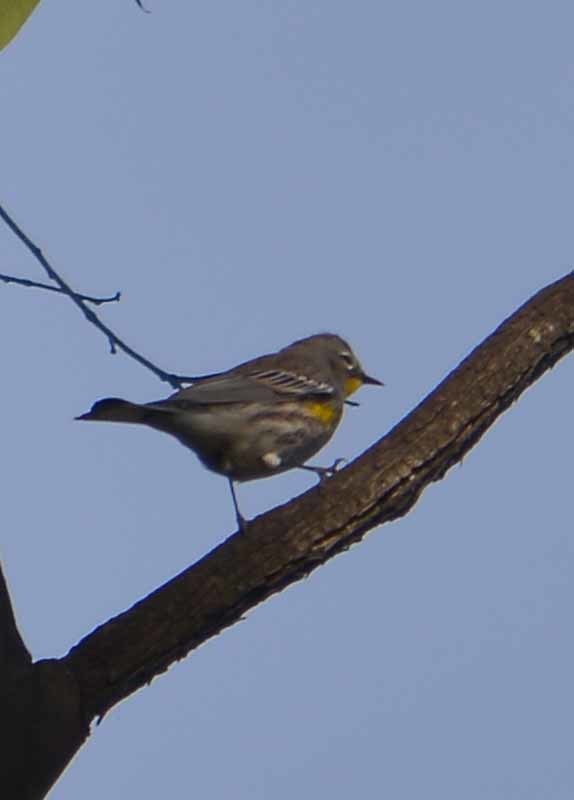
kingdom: Animalia
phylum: Chordata
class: Aves
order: Passeriformes
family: Parulidae
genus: Setophaga
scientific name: Setophaga auduboni
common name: Audubon's warbler
